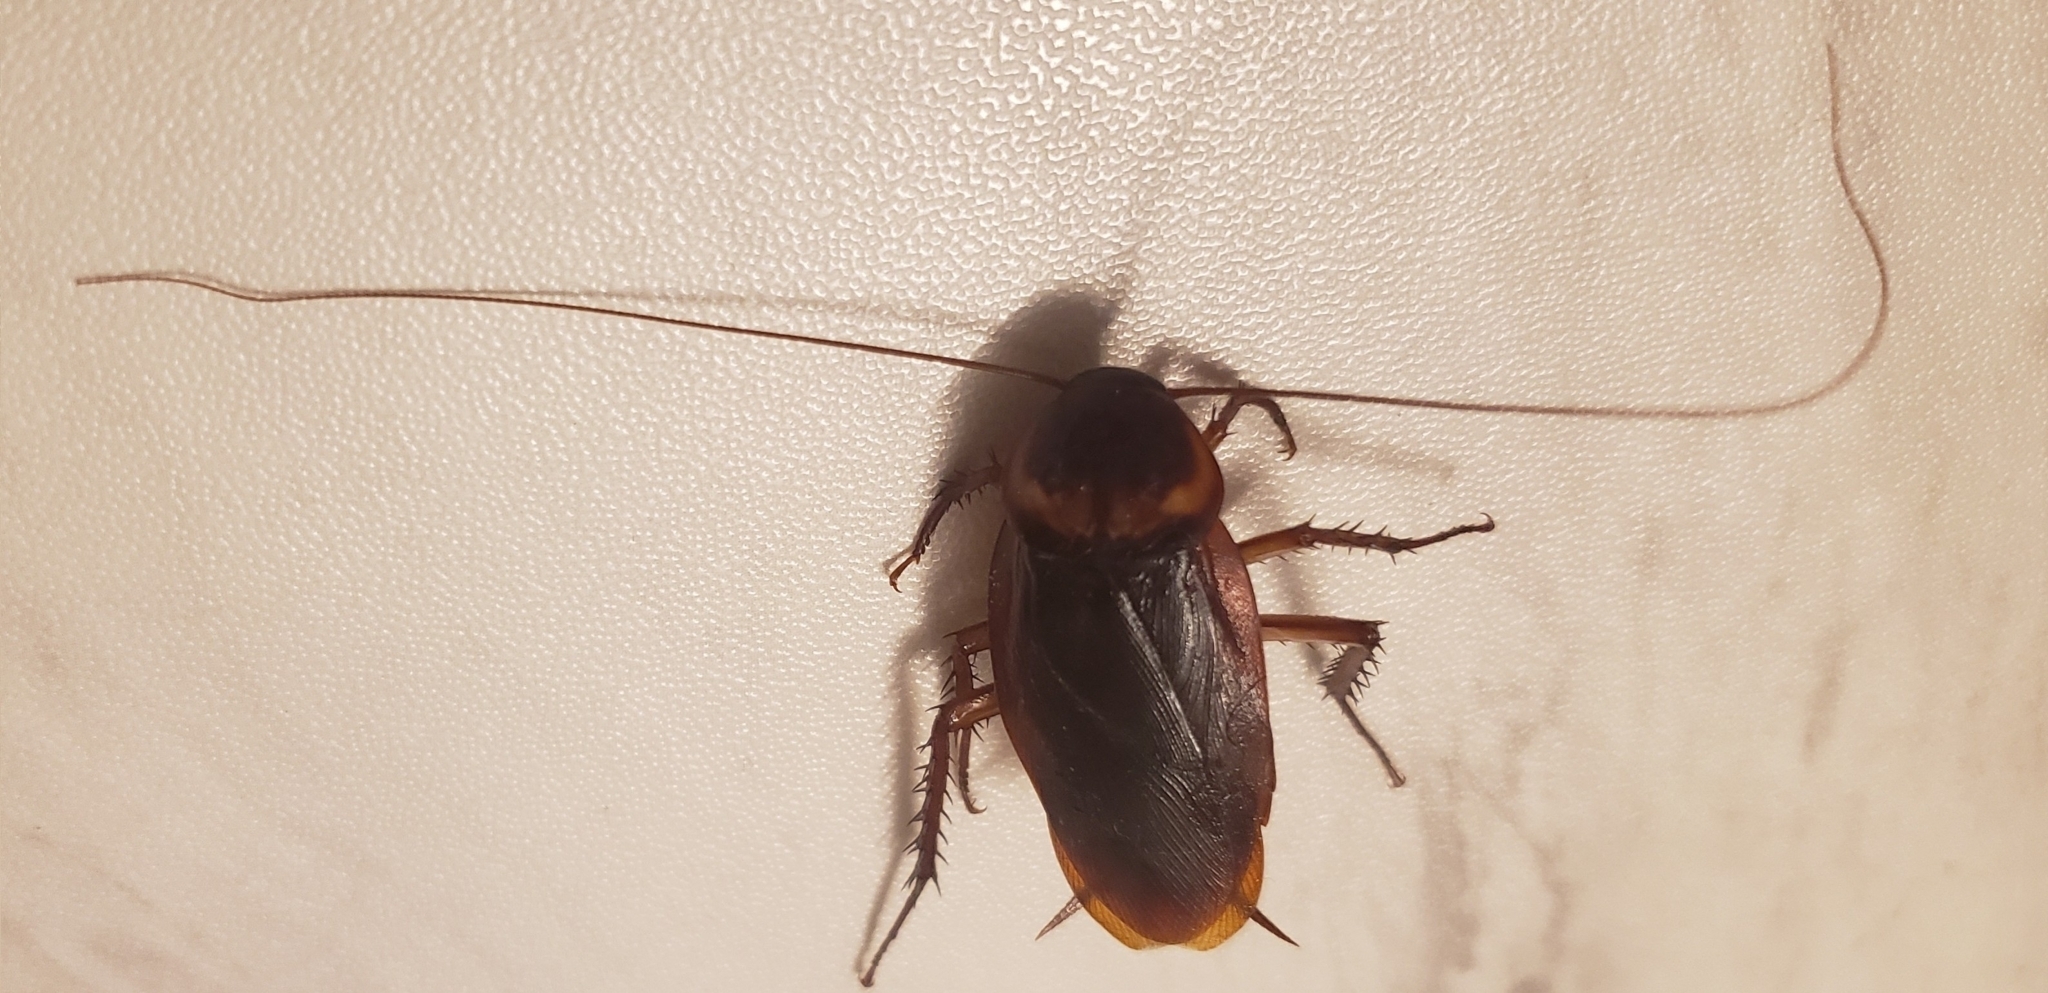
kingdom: Animalia
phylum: Arthropoda
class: Insecta
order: Blattodea
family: Blattidae
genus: Periplaneta
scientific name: Periplaneta americana
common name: American cockroach
